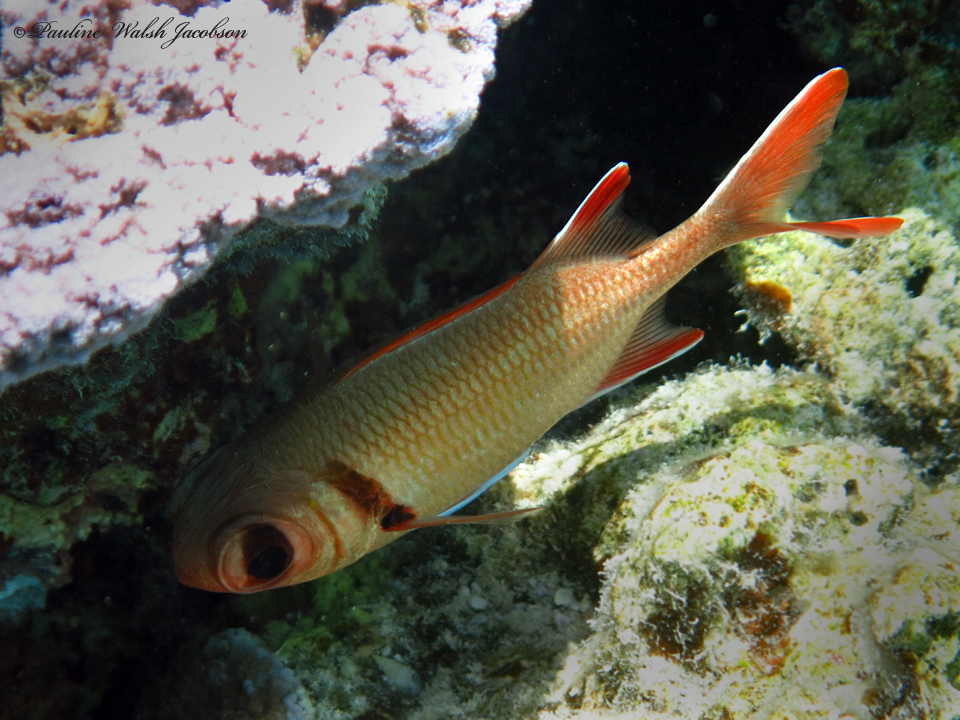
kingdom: Animalia
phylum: Chordata
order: Beryciformes
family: Holocentridae
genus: Myripristis
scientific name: Myripristis kuntee
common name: Epaulette soldierfish
